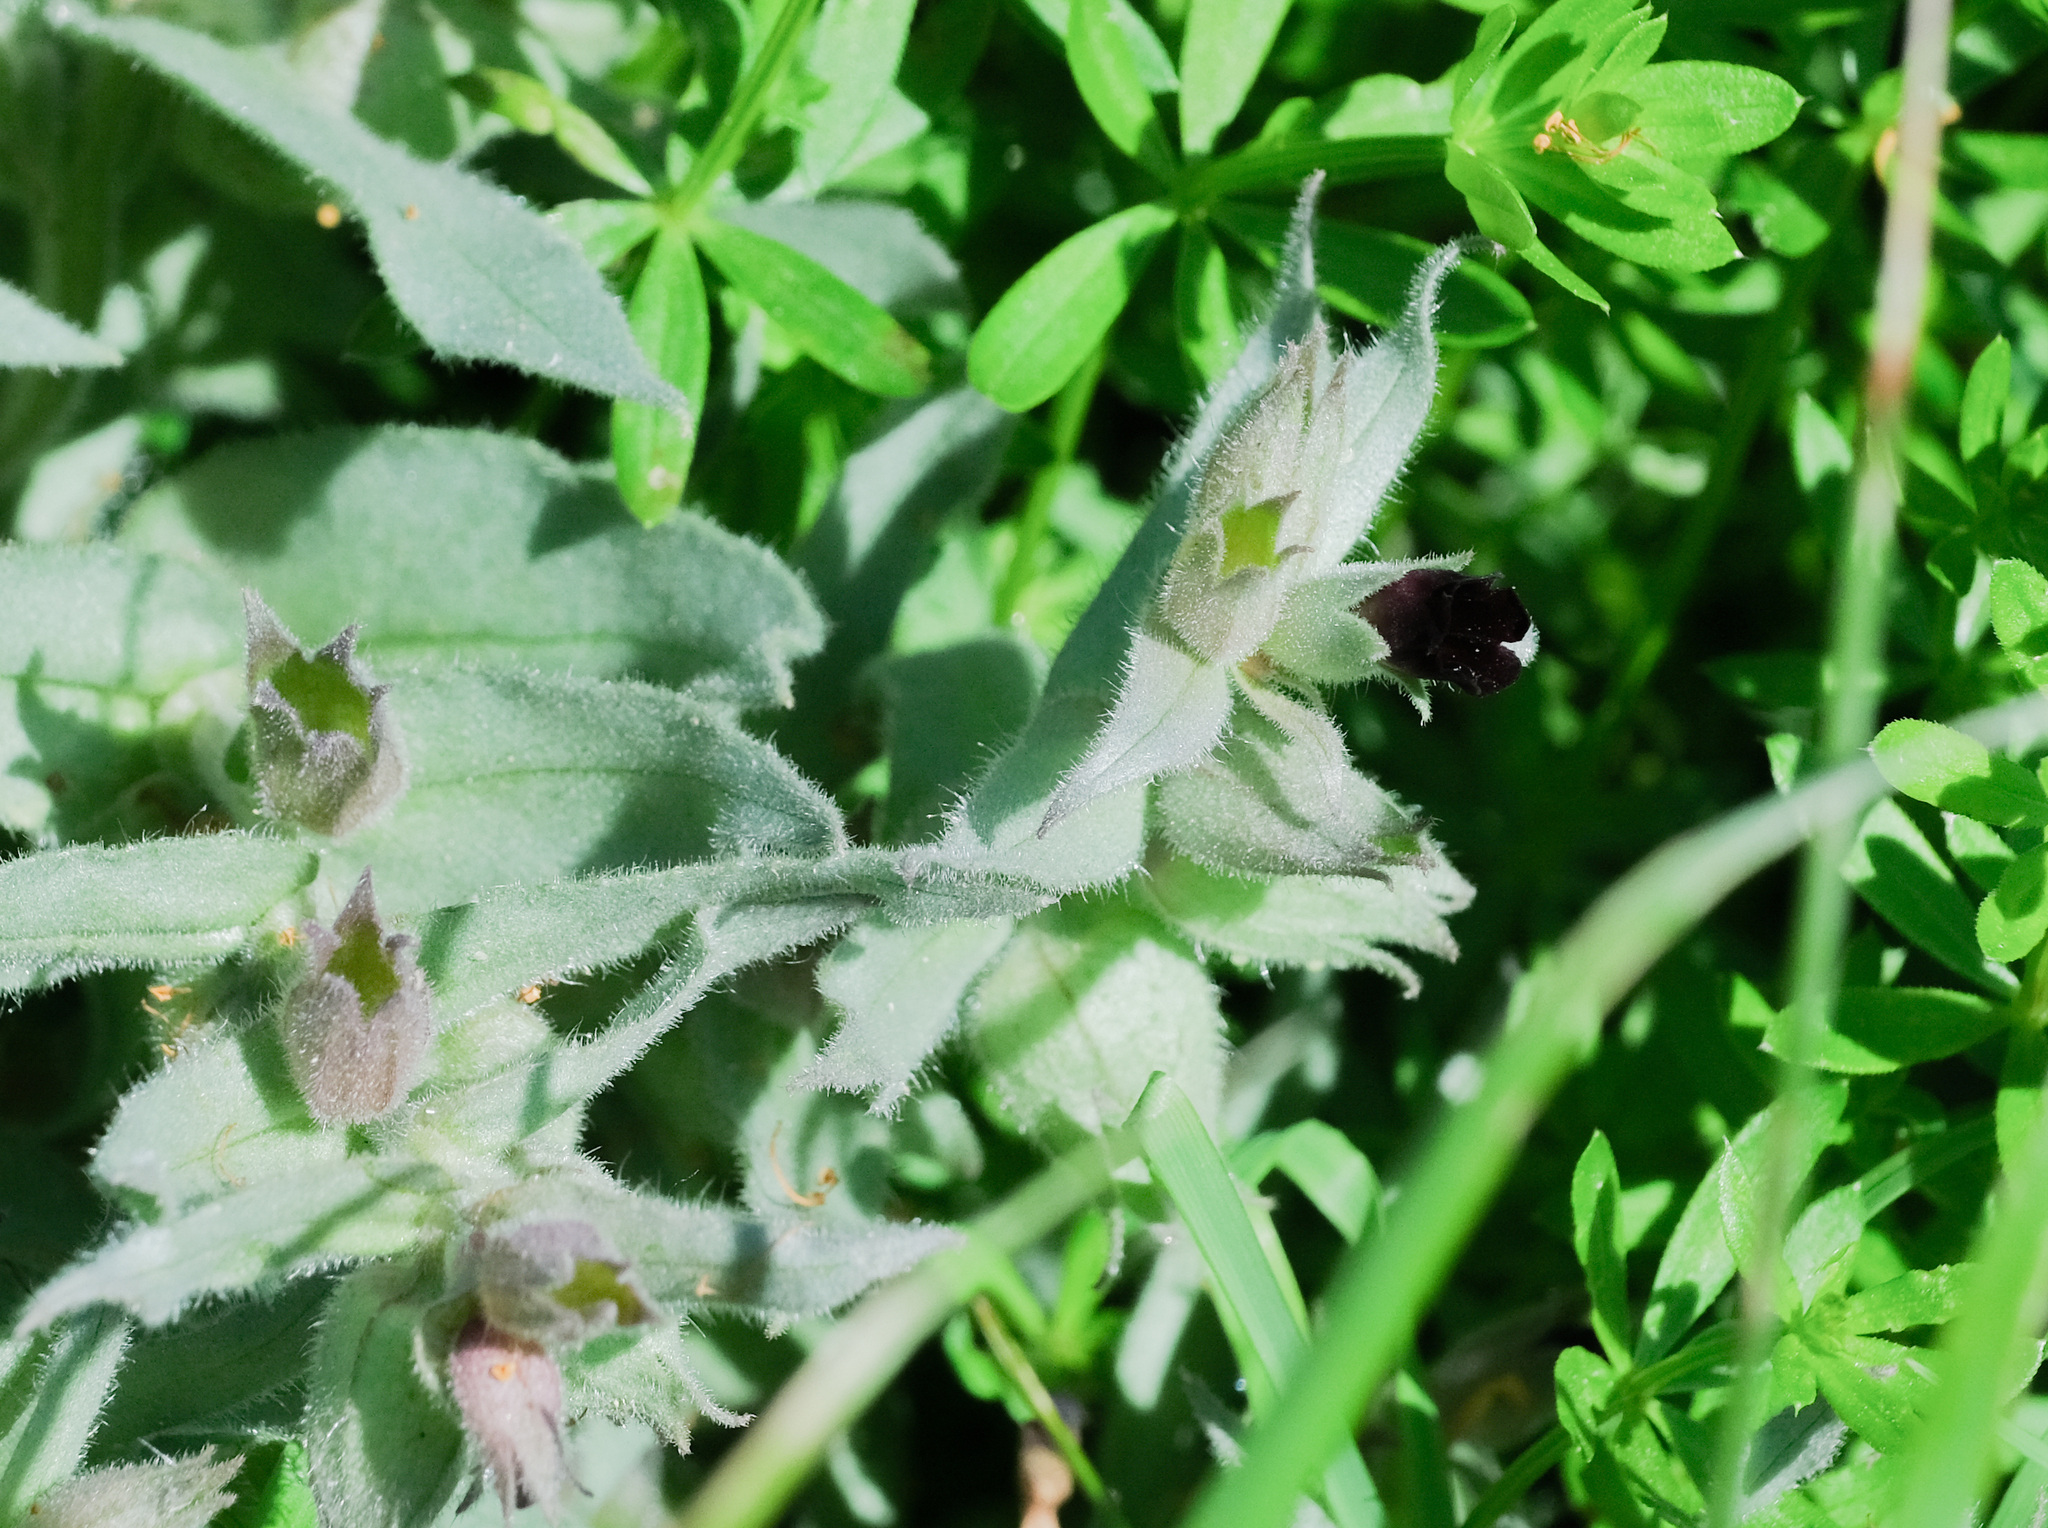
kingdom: Plantae
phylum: Tracheophyta
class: Magnoliopsida
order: Boraginales
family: Boraginaceae
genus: Nonea
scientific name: Nonea pulla
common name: Brown nonea
